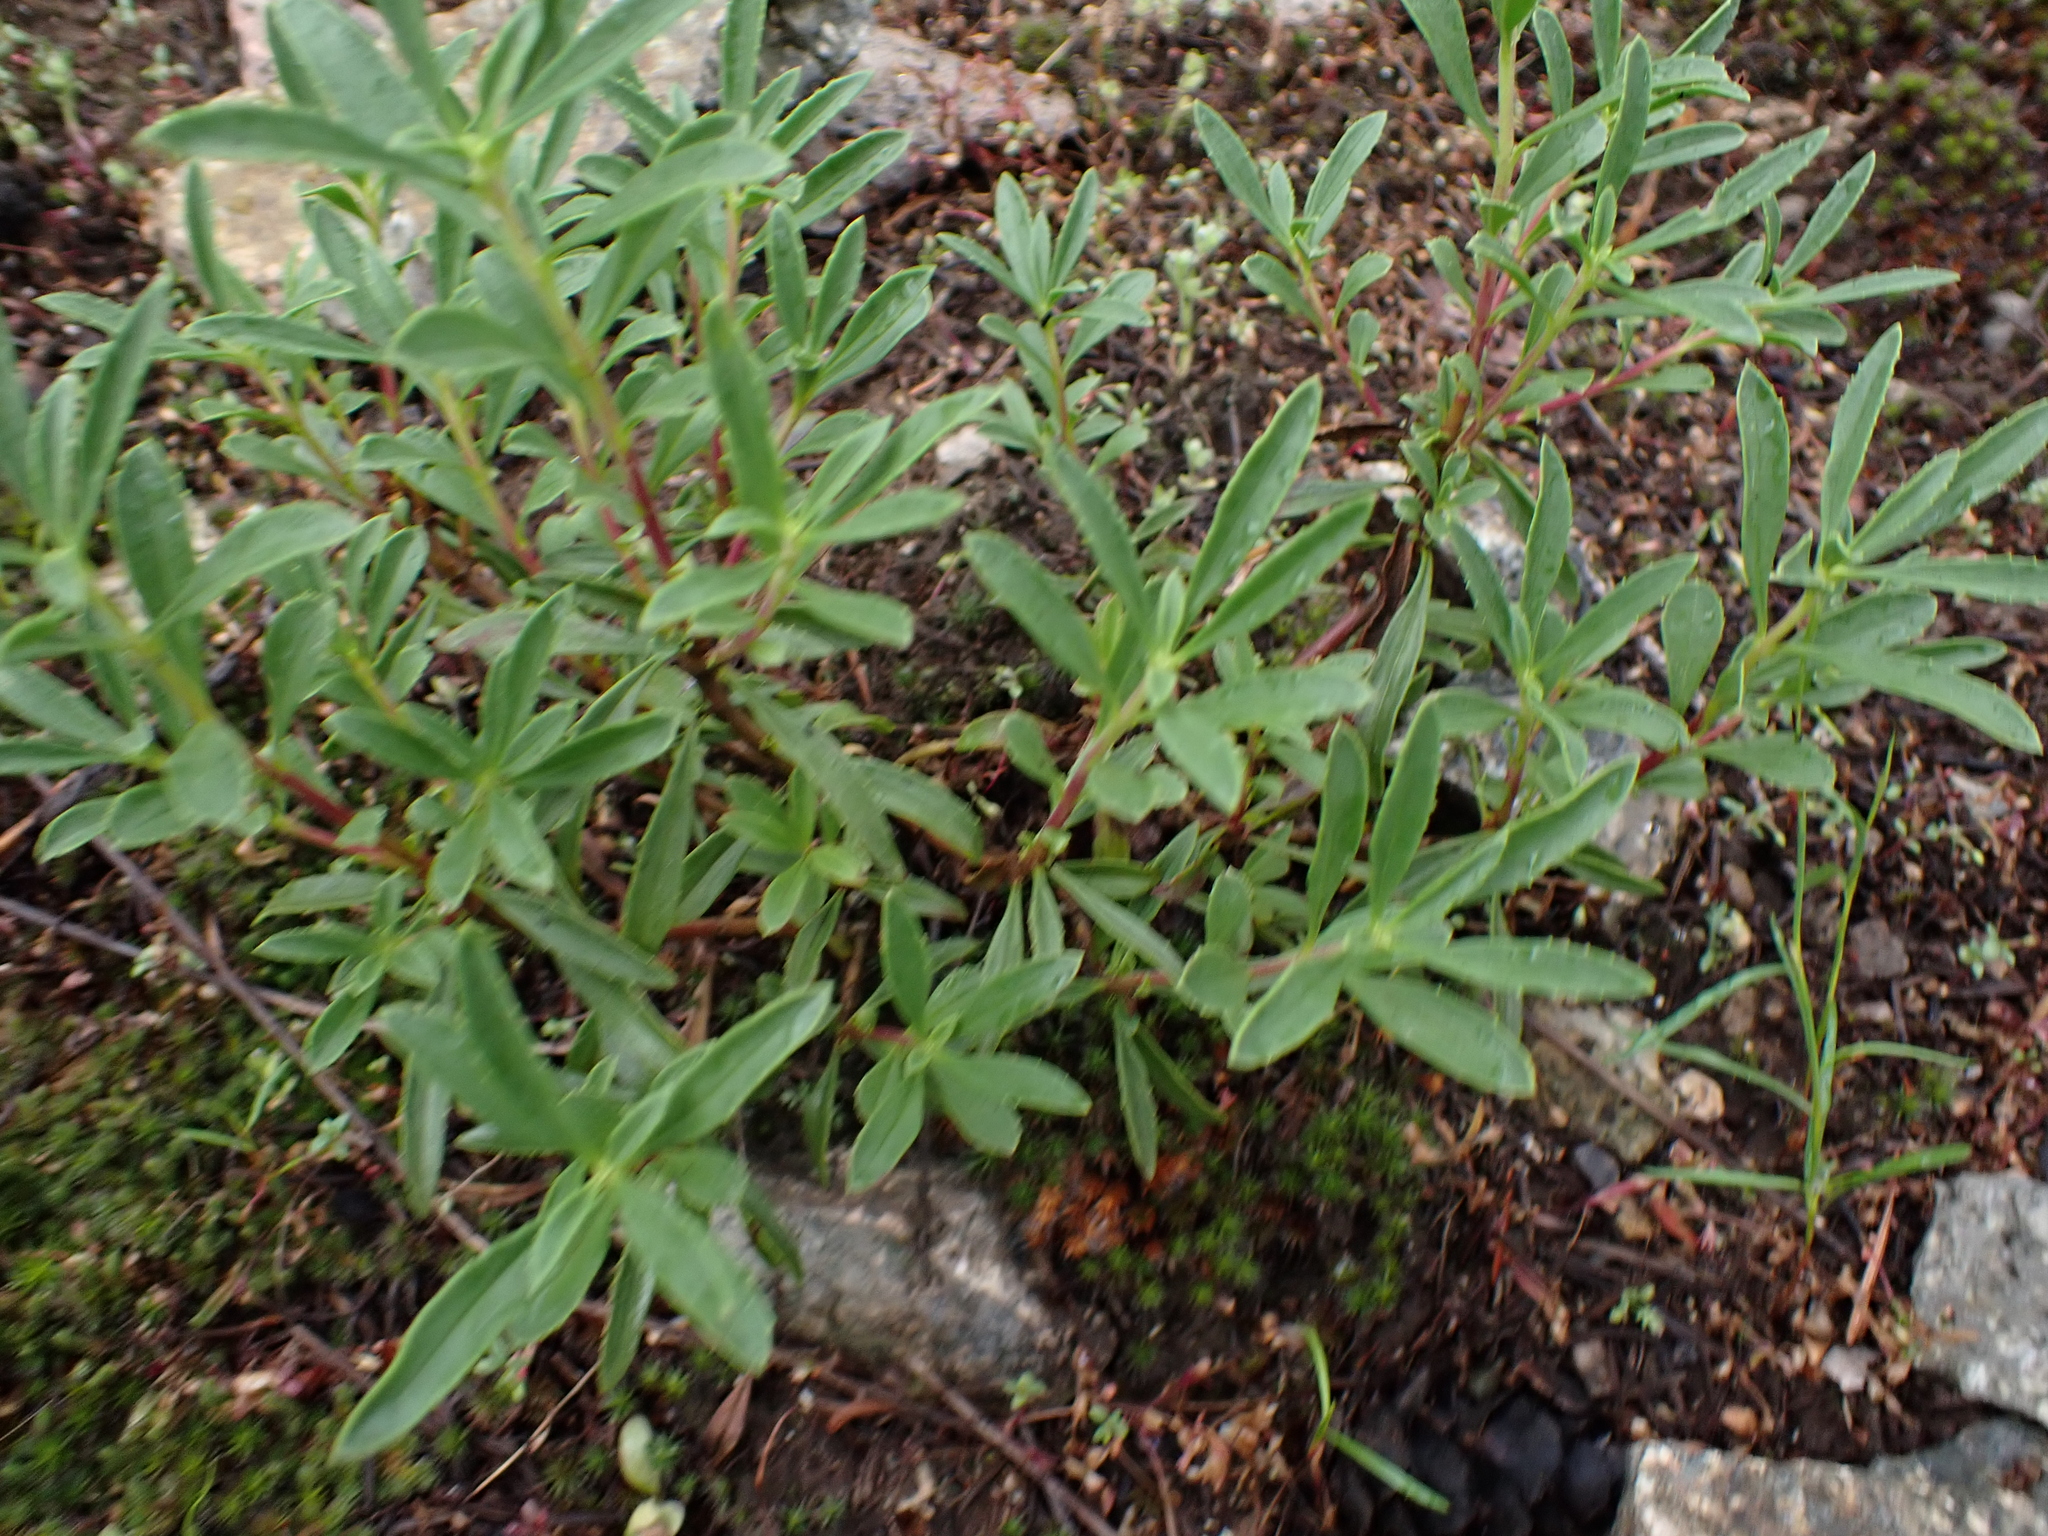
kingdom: Plantae
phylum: Tracheophyta
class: Magnoliopsida
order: Lamiales
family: Plantaginaceae
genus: Penstemon
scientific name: Penstemon fruticosus
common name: Bush penstemon
